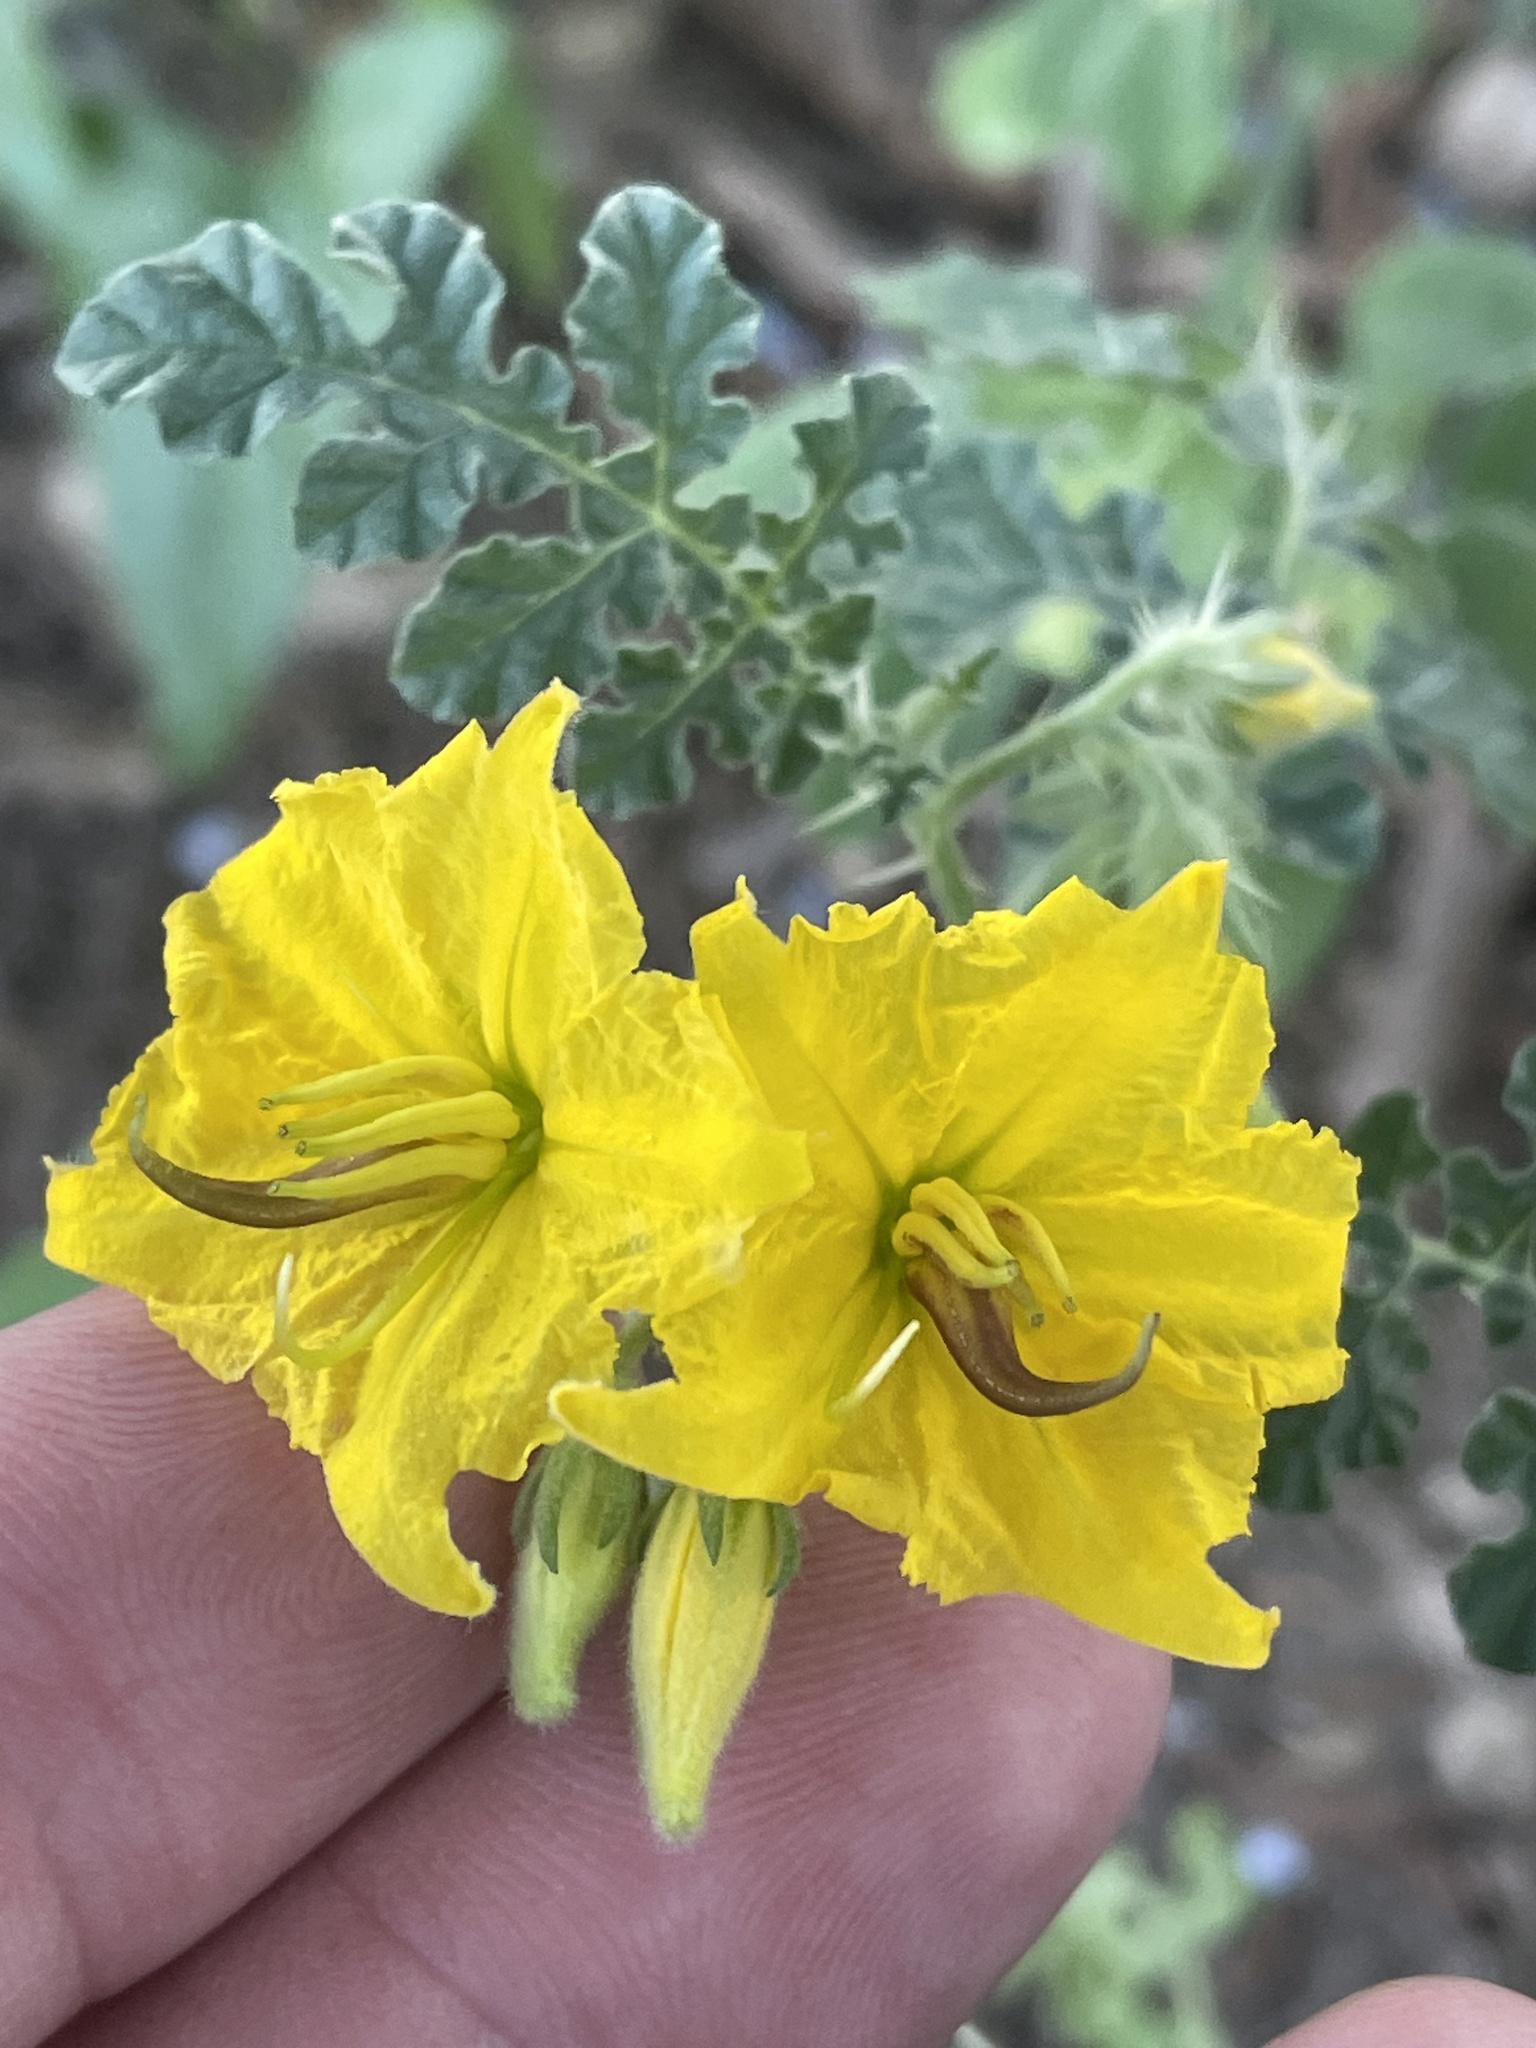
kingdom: Plantae
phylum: Tracheophyta
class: Magnoliopsida
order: Solanales
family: Solanaceae
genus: Solanum
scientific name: Solanum angustifolium
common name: Buffalobur nightshade
